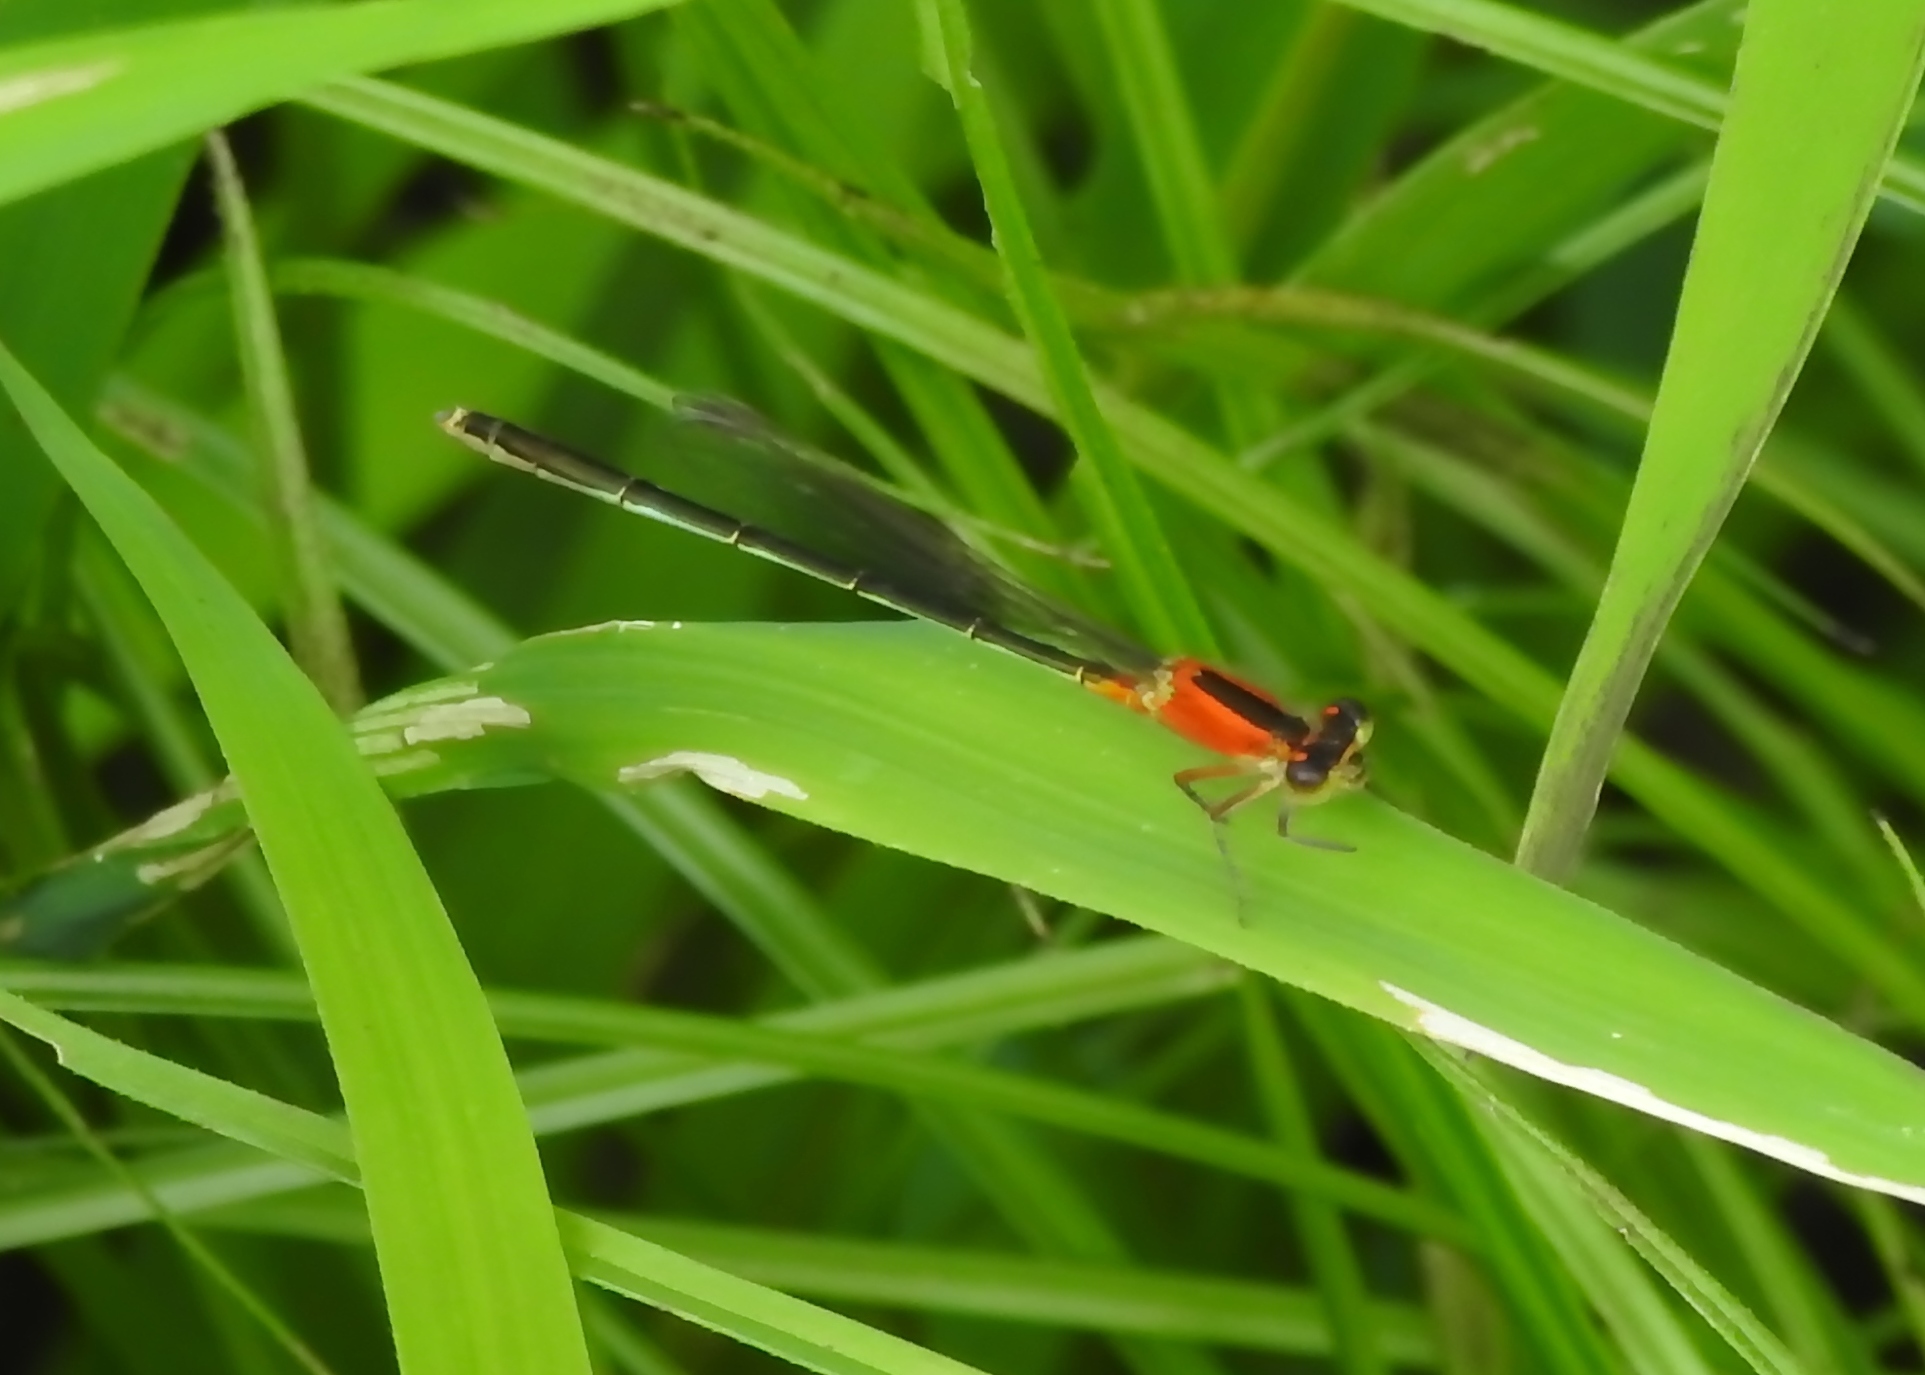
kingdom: Animalia
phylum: Arthropoda
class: Insecta
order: Odonata
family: Coenagrionidae
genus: Ischnura
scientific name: Ischnura ramburii
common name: Rambur's forktail
